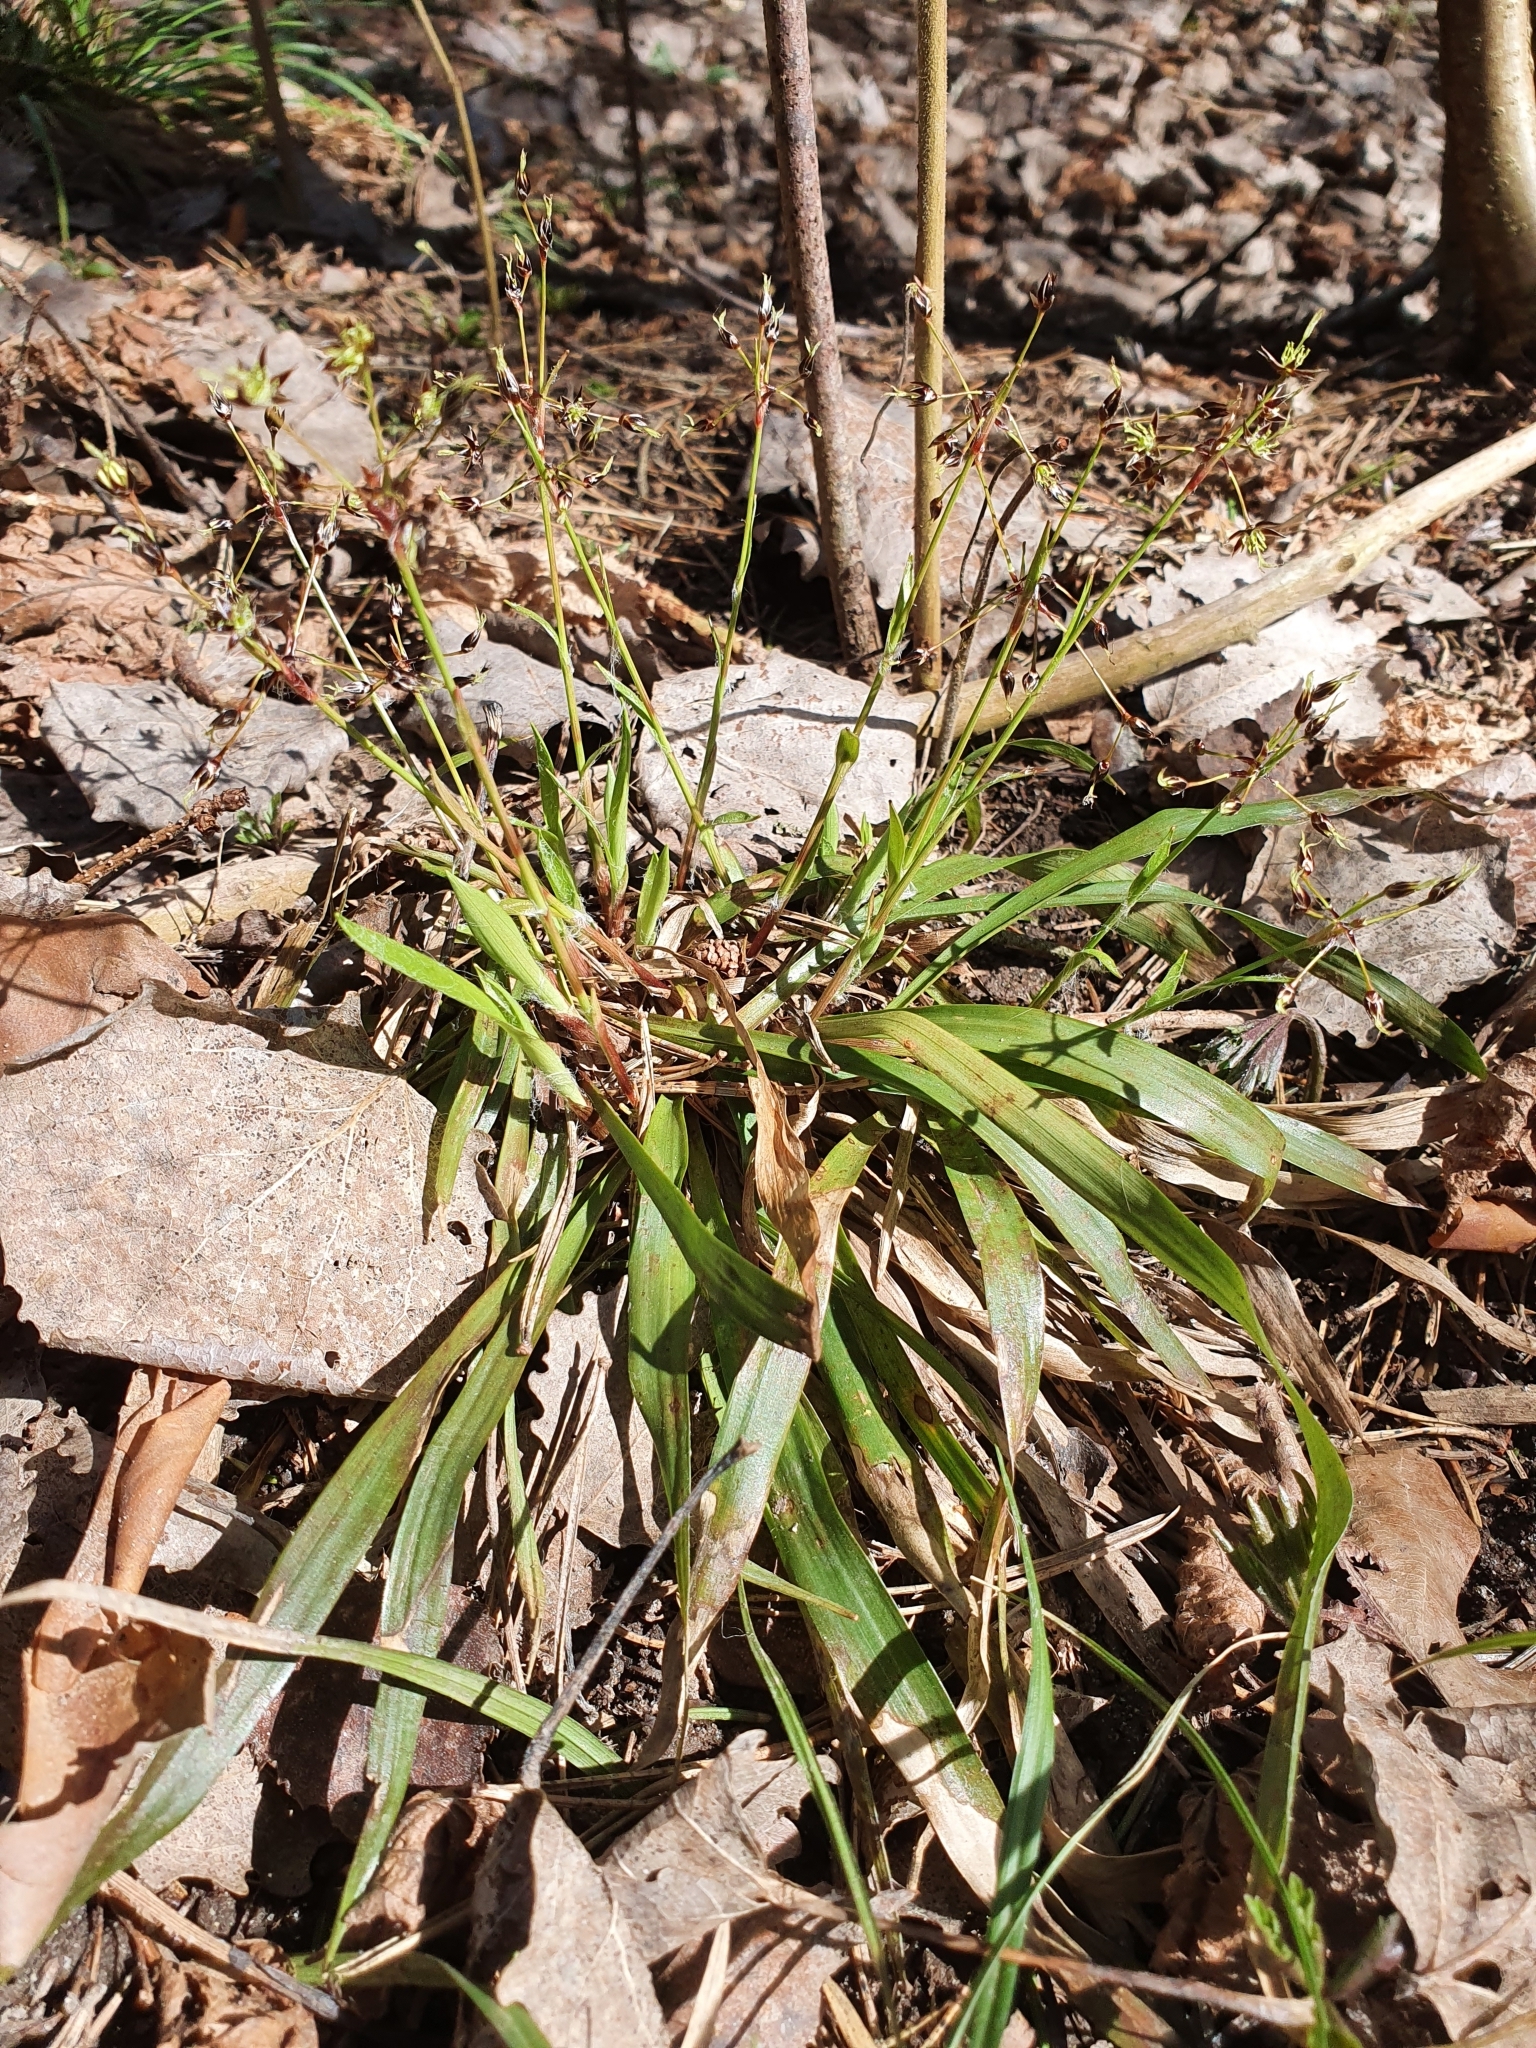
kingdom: Plantae
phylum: Tracheophyta
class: Liliopsida
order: Poales
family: Juncaceae
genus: Luzula
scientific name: Luzula pilosa
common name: Hairy wood-rush
